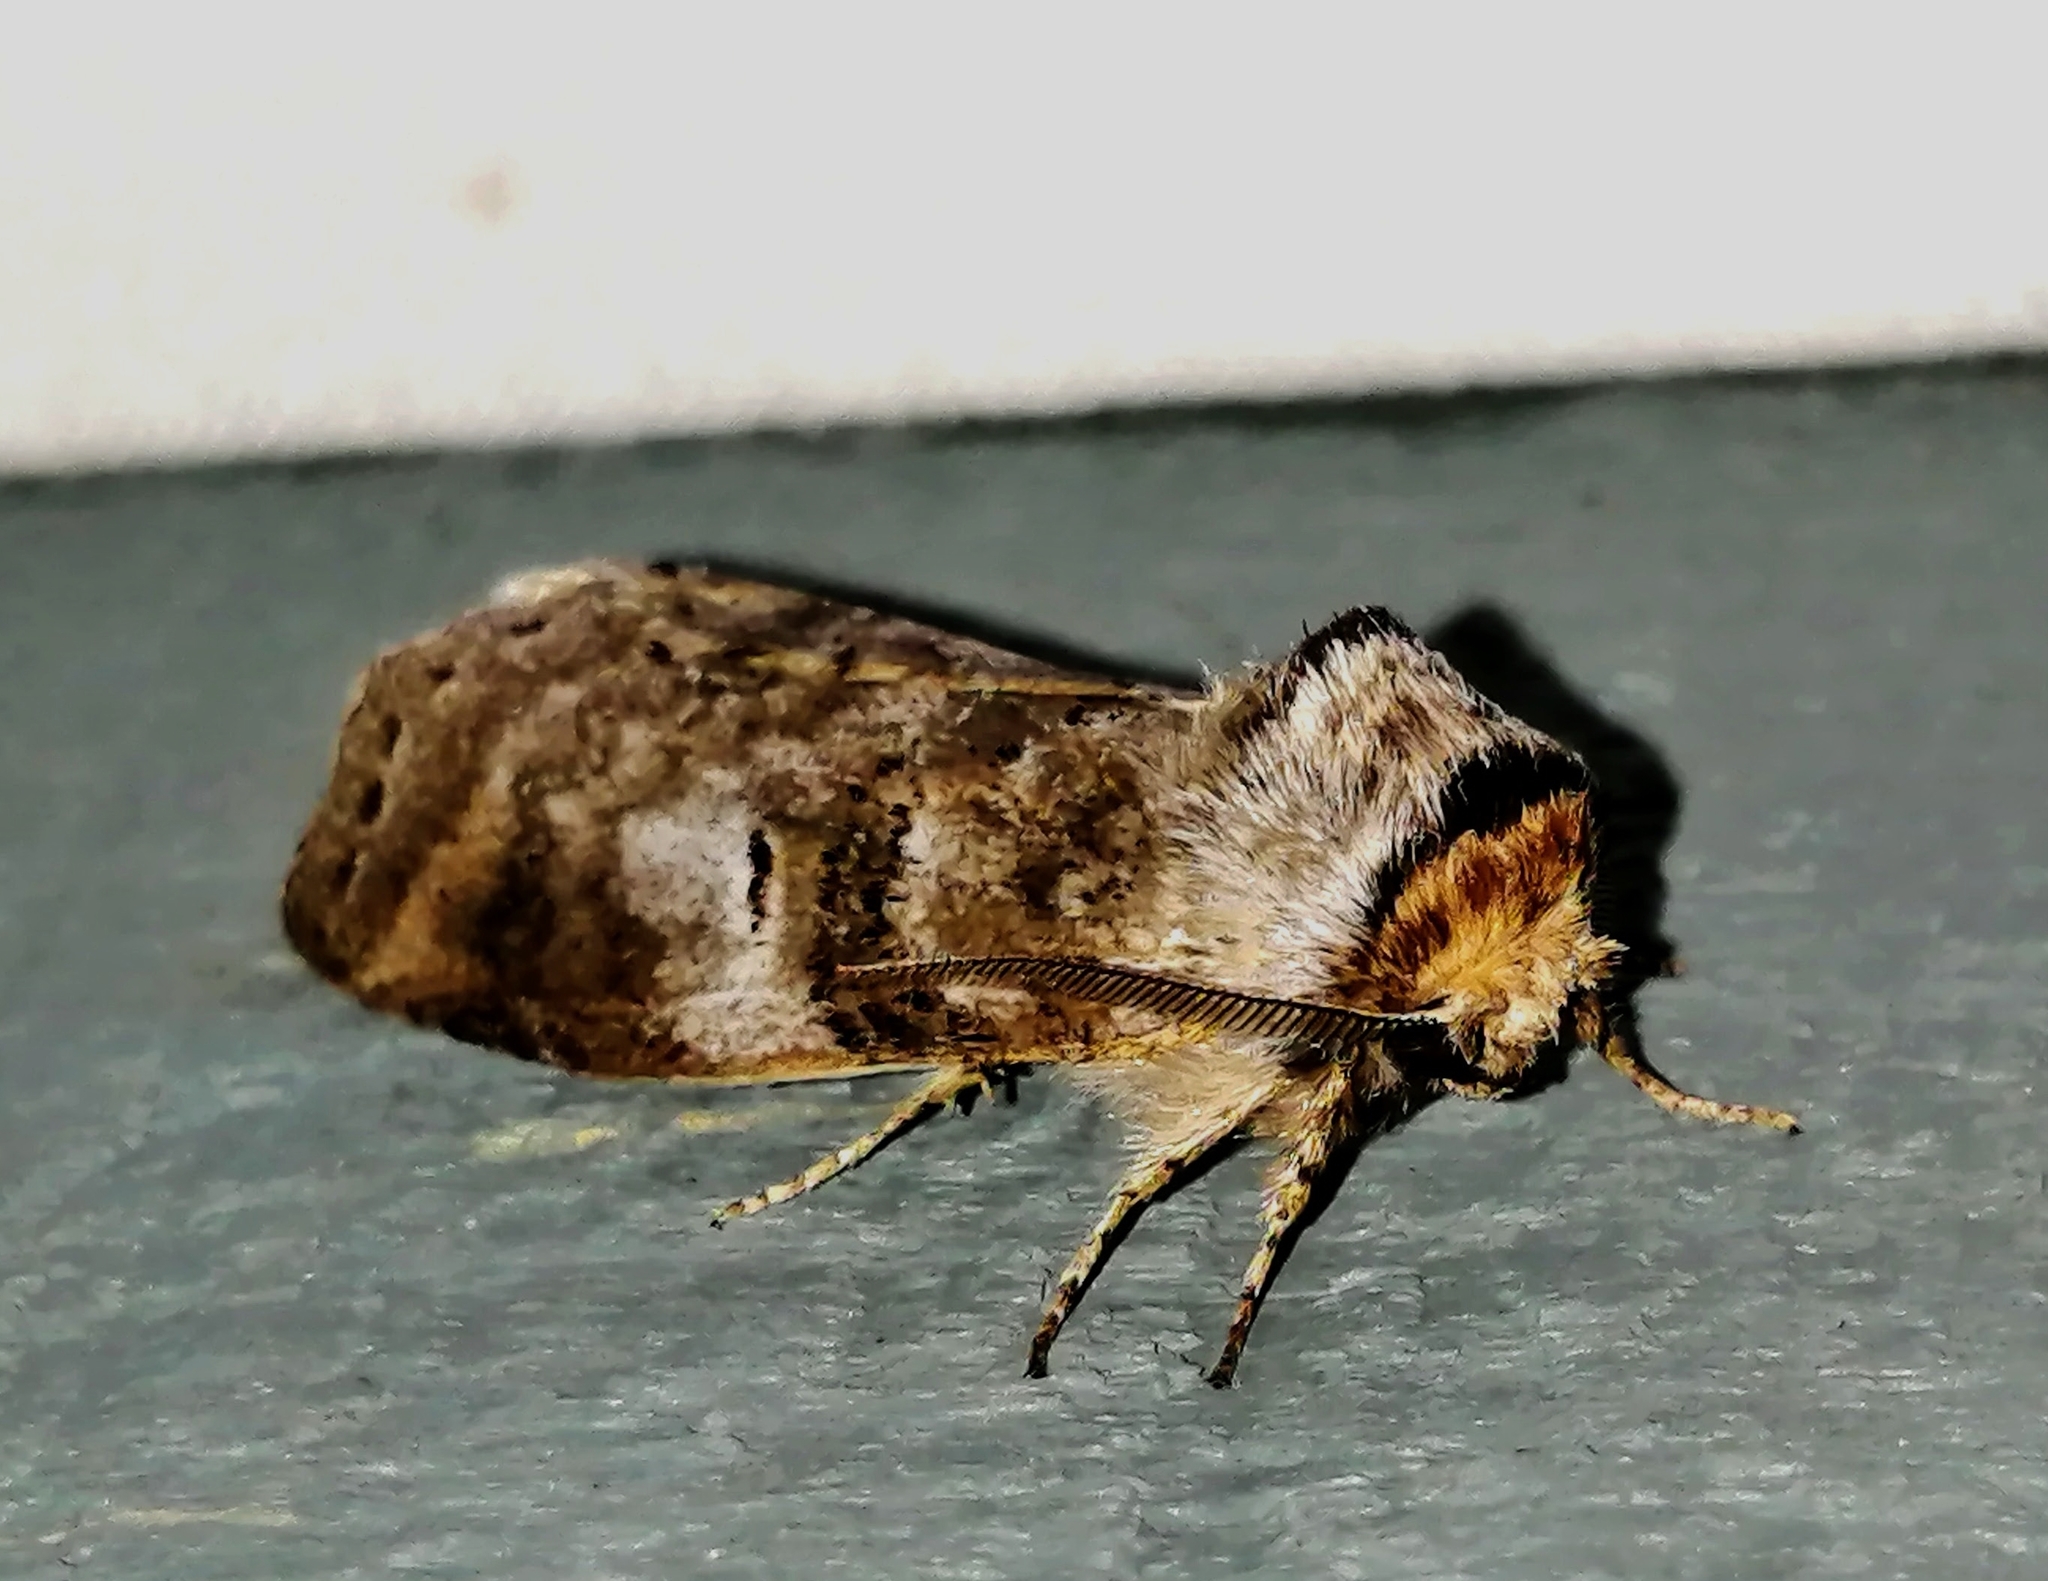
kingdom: Animalia
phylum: Arthropoda
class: Insecta
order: Lepidoptera
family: Notodontidae
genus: Ellida
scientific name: Ellida caniplaga
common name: Linden prominent
